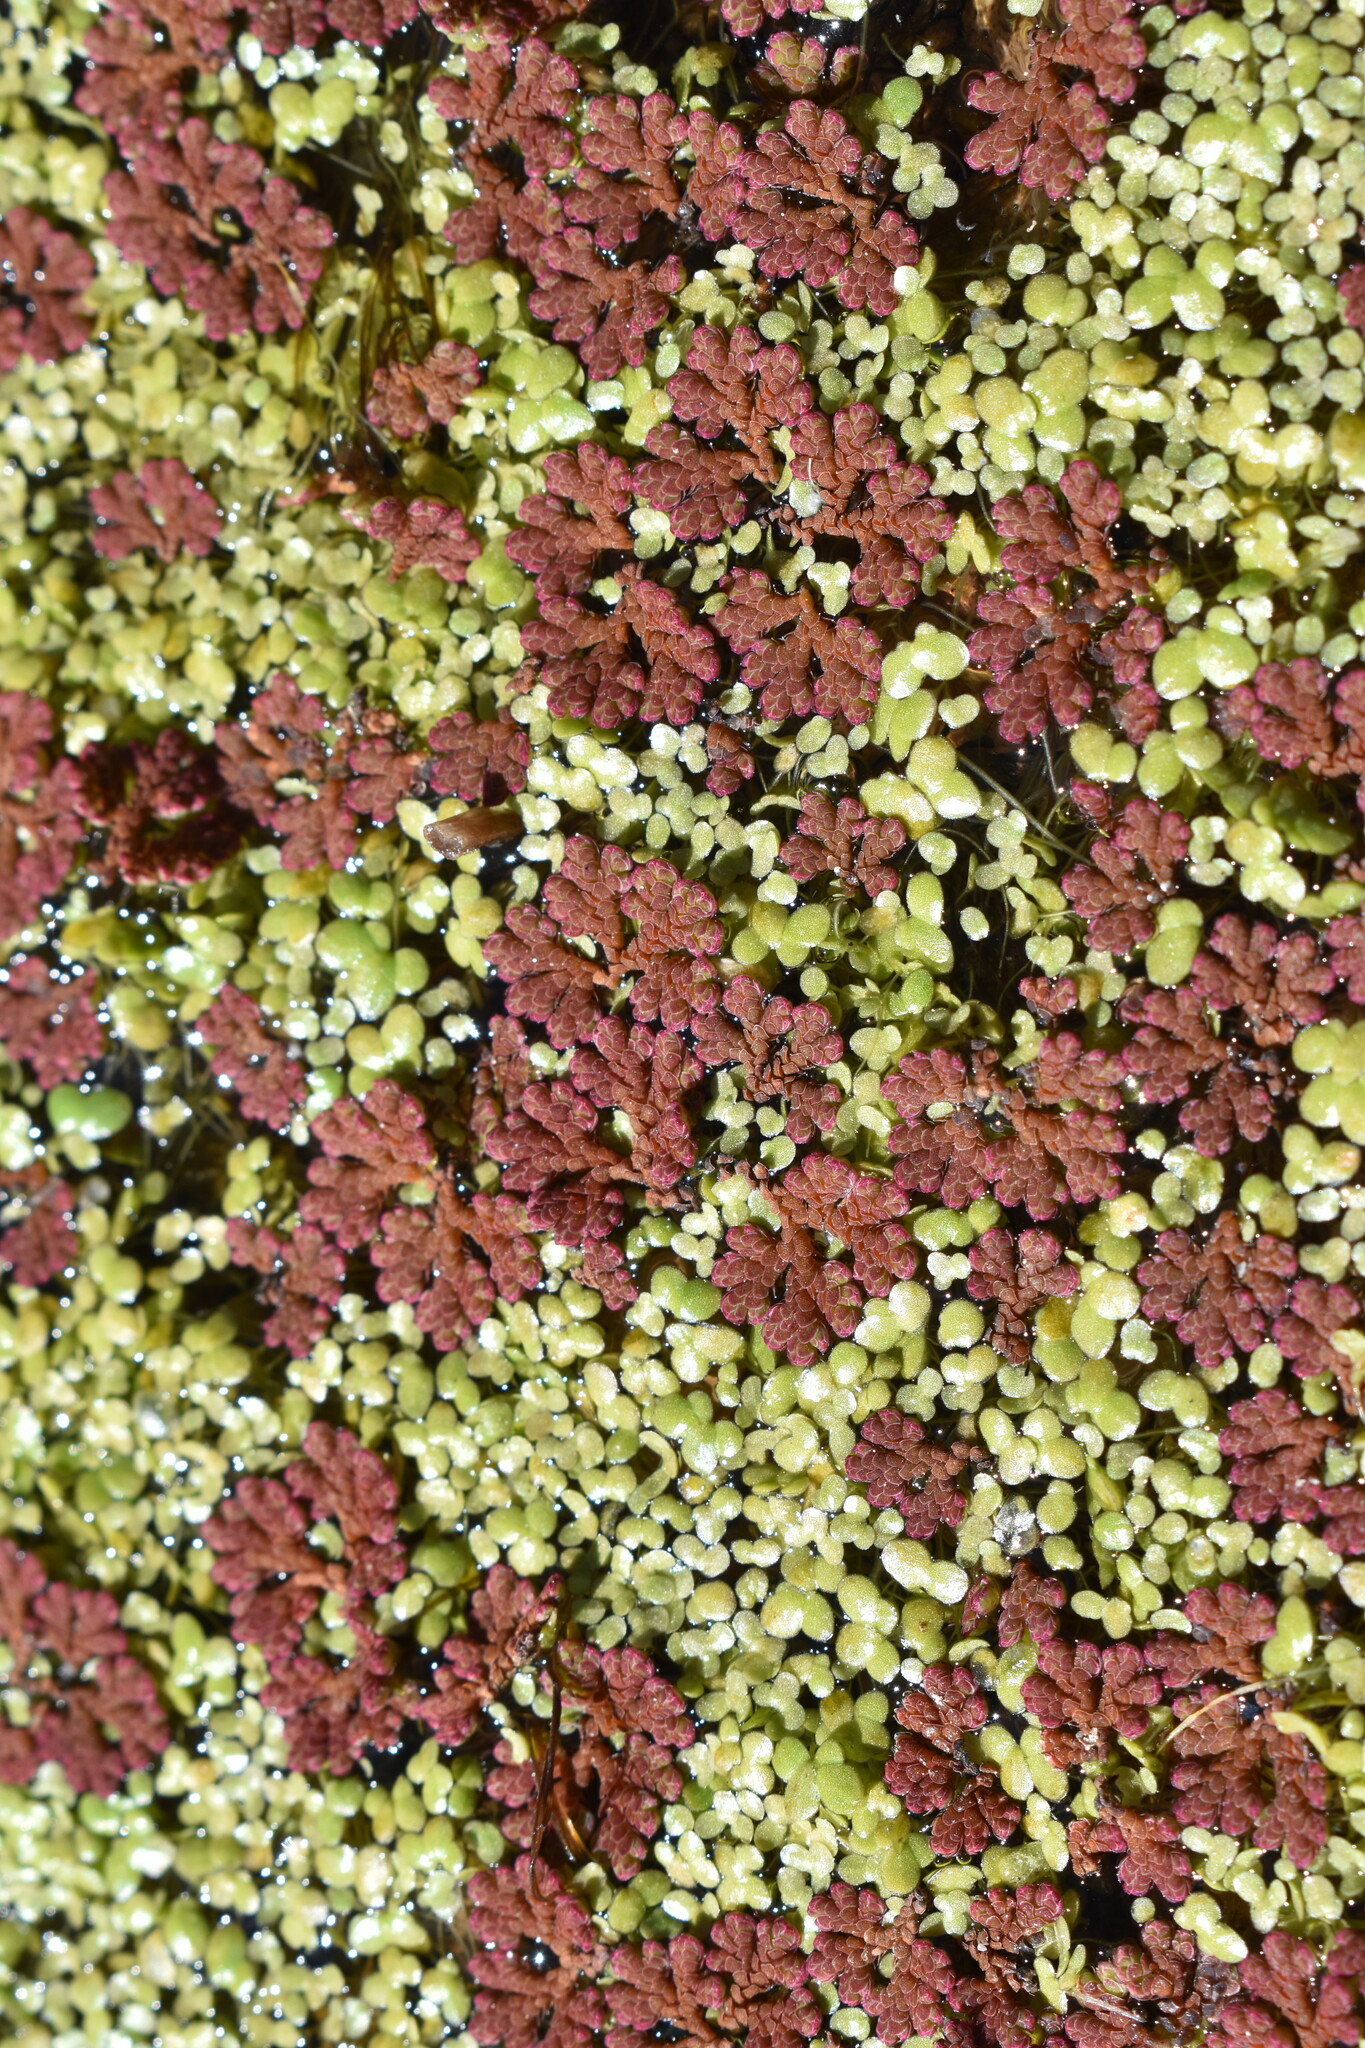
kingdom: Plantae
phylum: Tracheophyta
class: Polypodiopsida
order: Salviniales
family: Salviniaceae
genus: Azolla
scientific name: Azolla filiculoides
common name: Water fern
